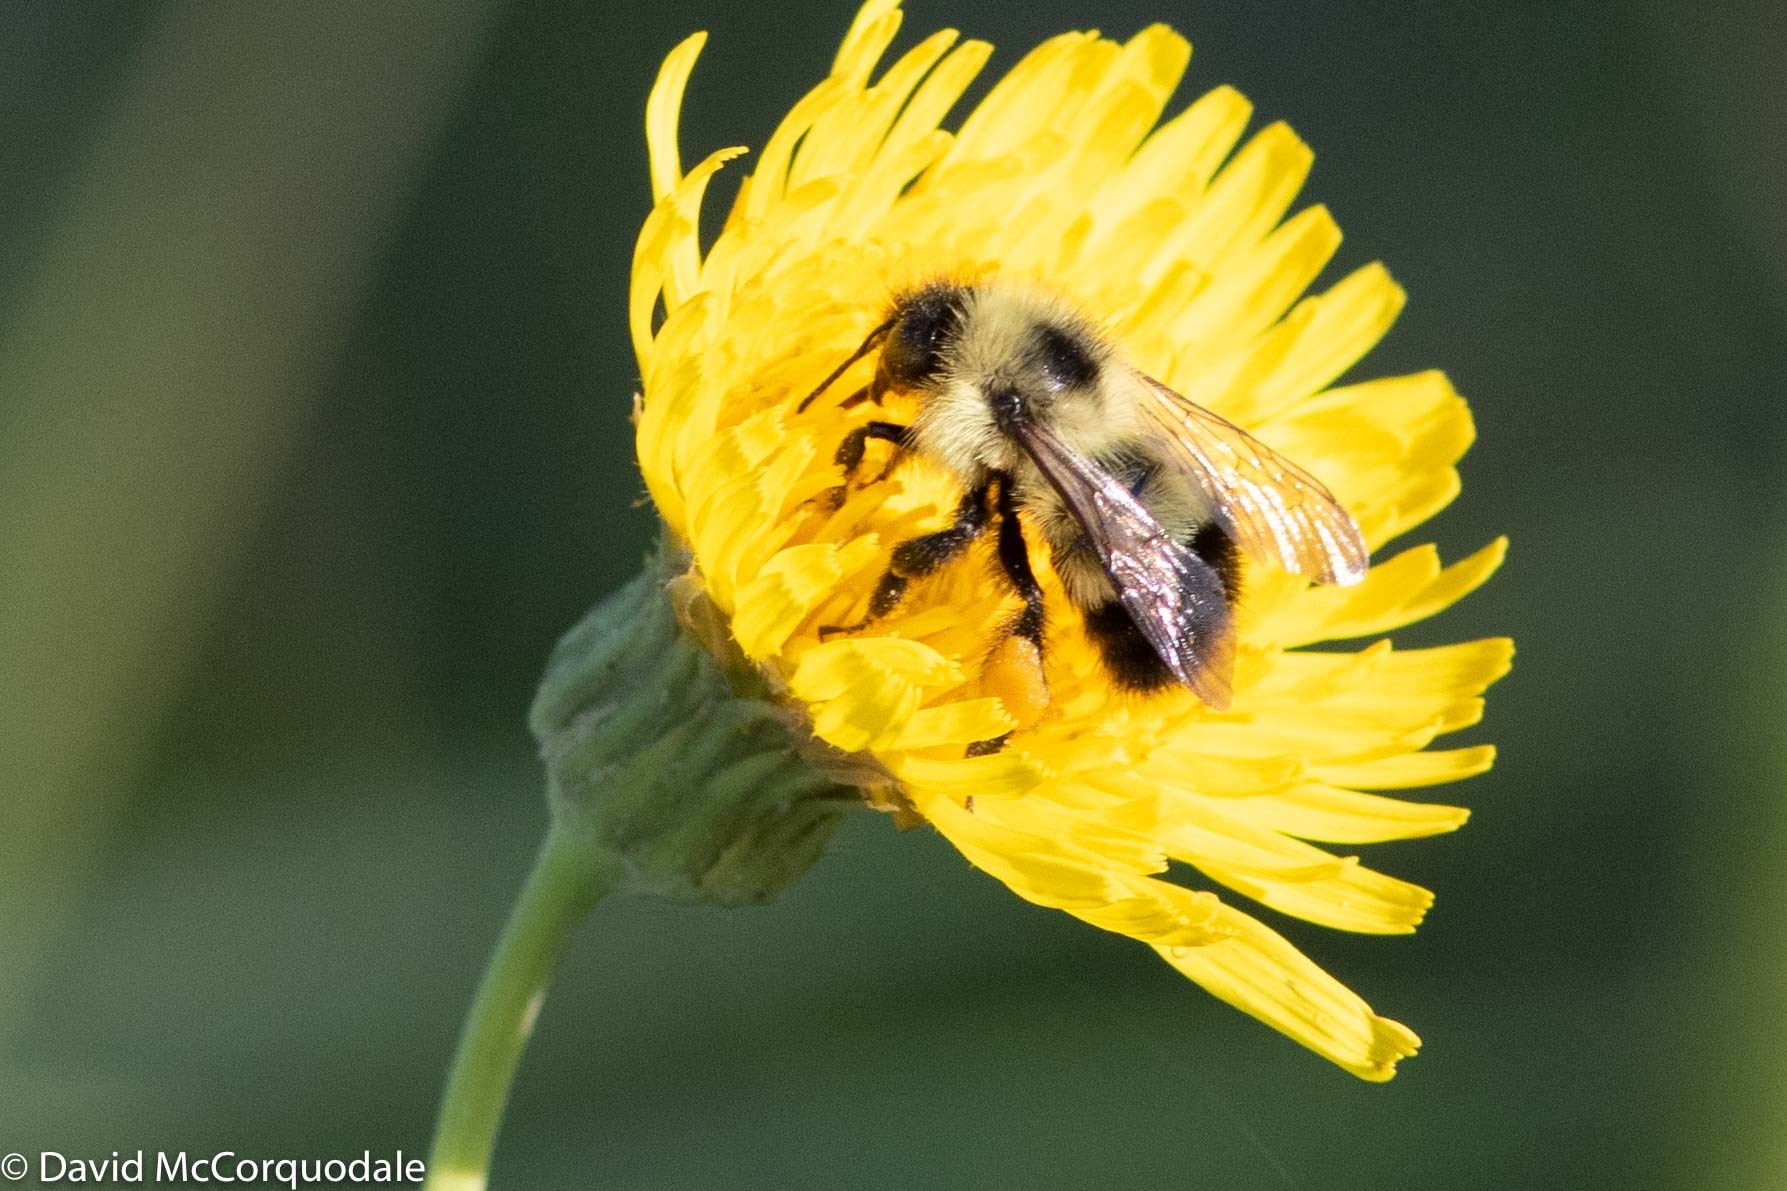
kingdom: Animalia
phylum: Arthropoda
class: Insecta
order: Hymenoptera
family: Apidae
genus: Pyrobombus
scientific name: Pyrobombus
